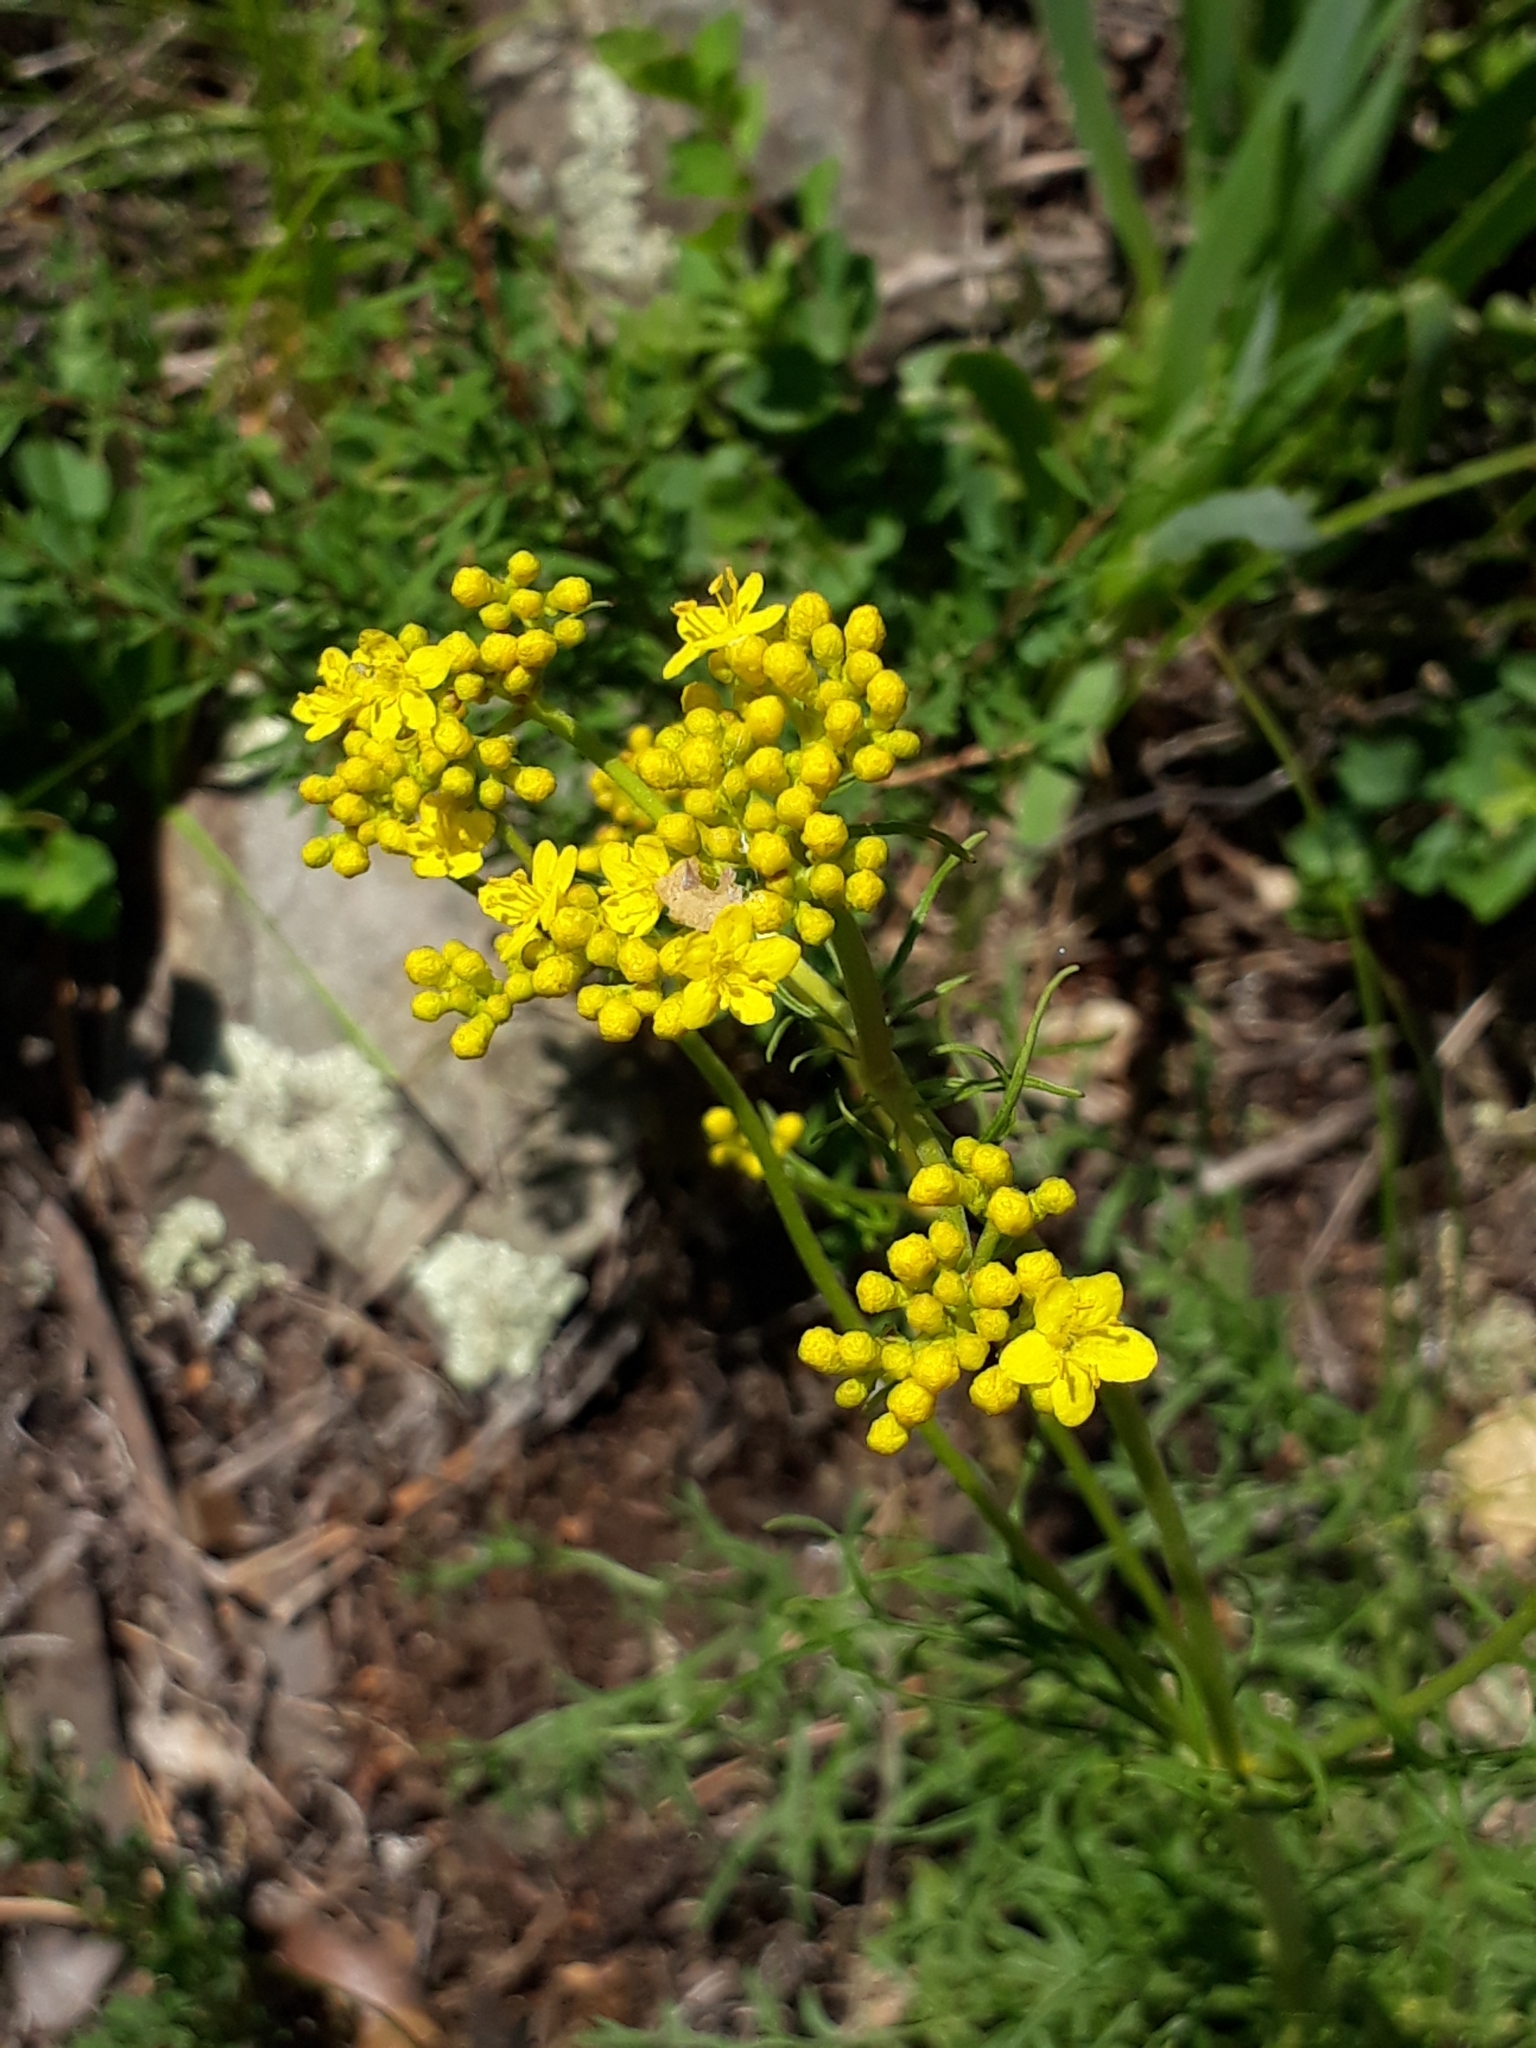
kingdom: Plantae
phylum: Tracheophyta
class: Magnoliopsida
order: Dipsacales
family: Caprifoliaceae
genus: Patrinia
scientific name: Patrinia intermedia
